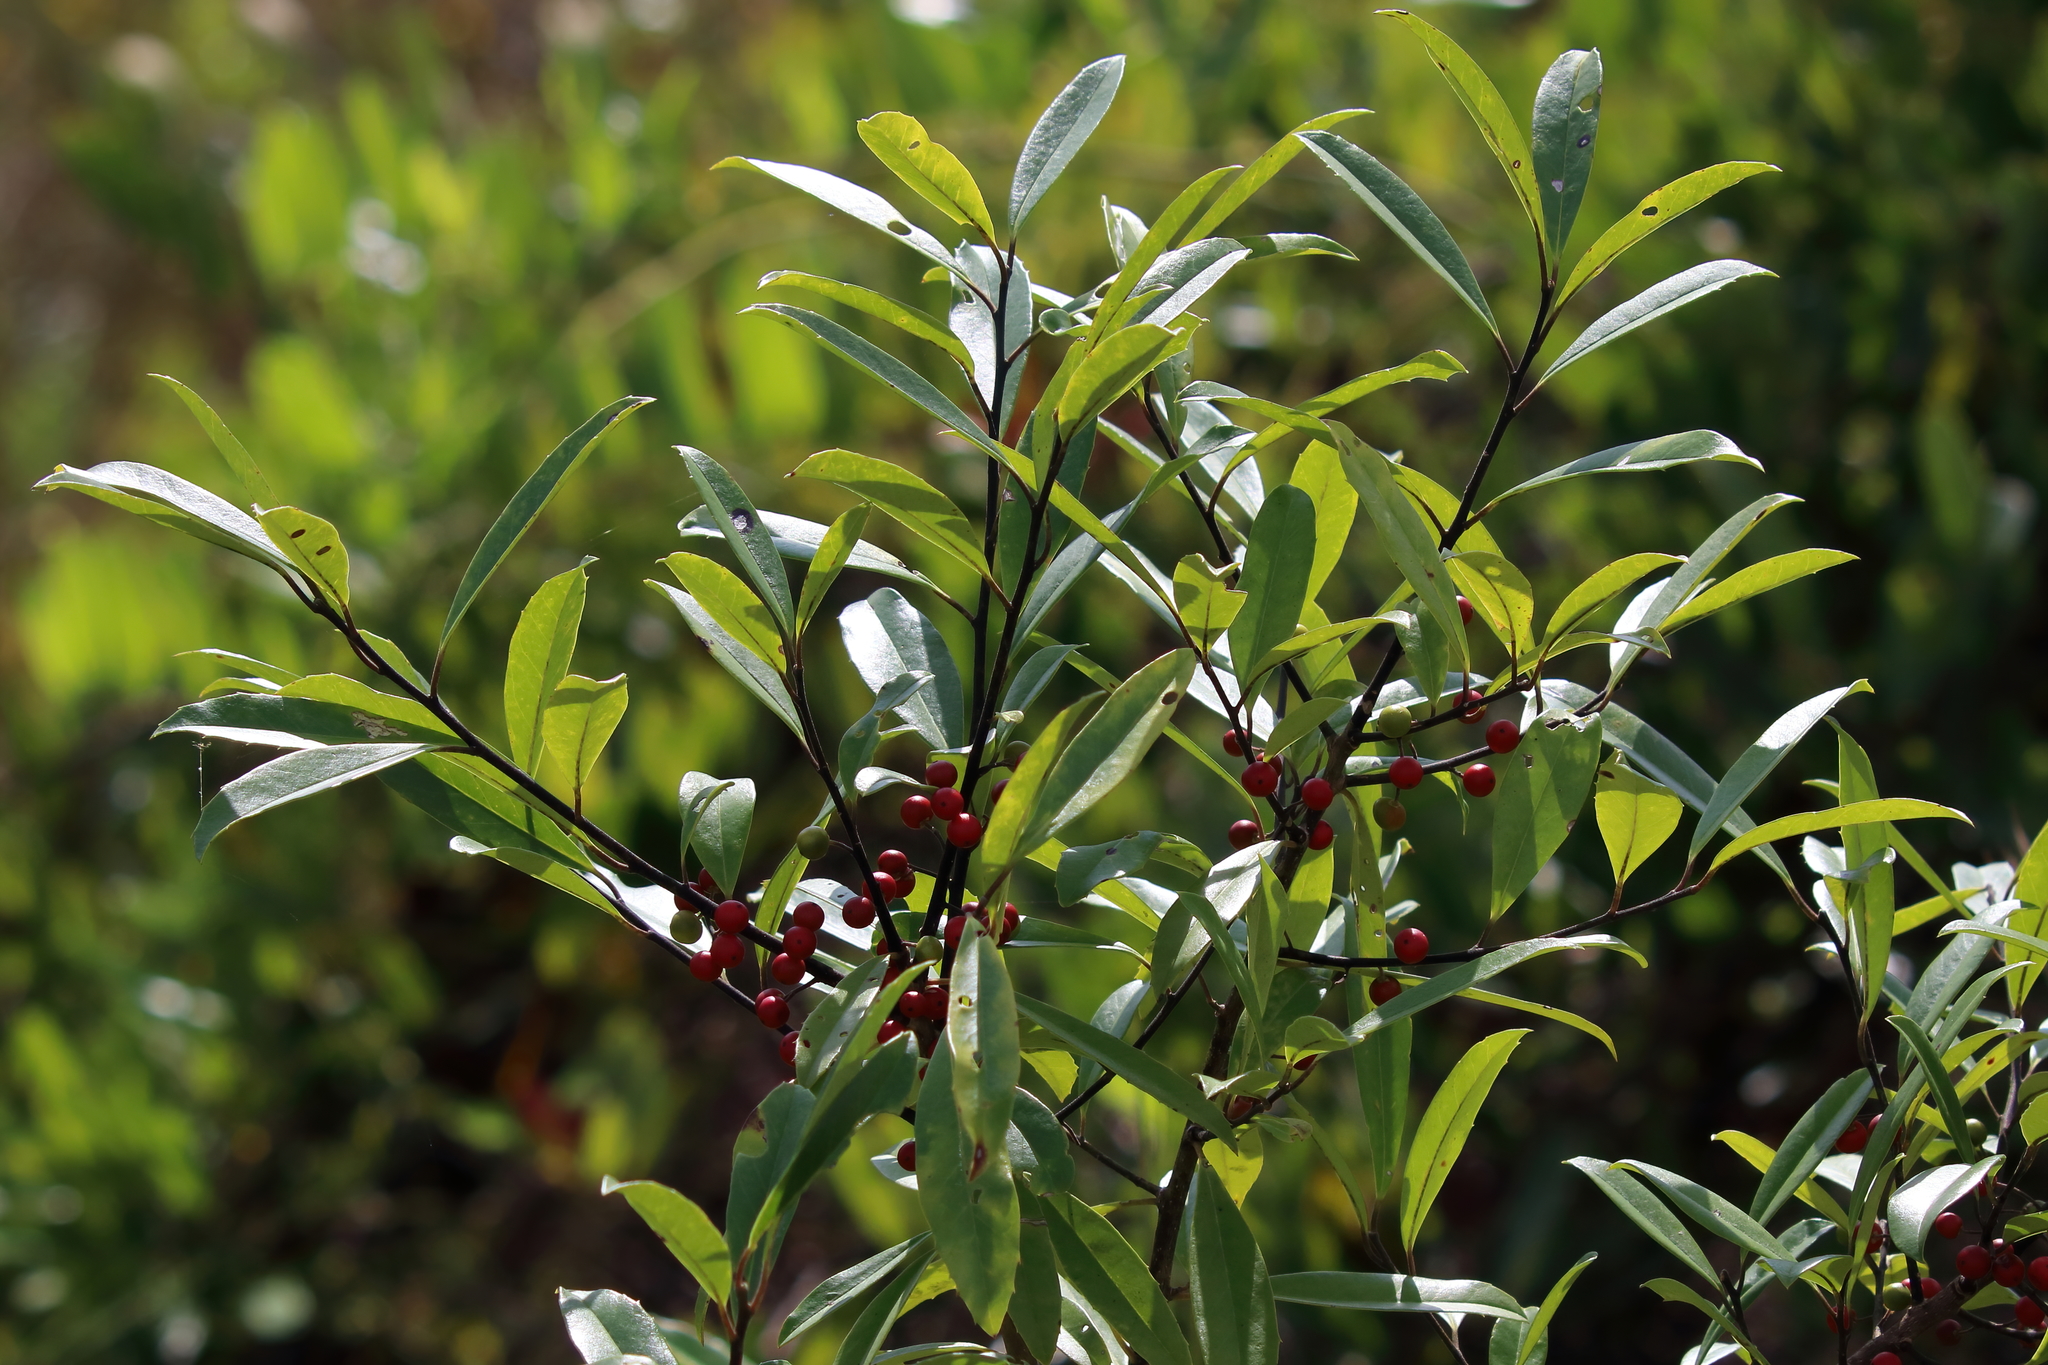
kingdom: Plantae
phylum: Tracheophyta
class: Magnoliopsida
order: Aquifoliales
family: Aquifoliaceae
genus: Ilex
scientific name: Ilex cassine
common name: Dahoon
